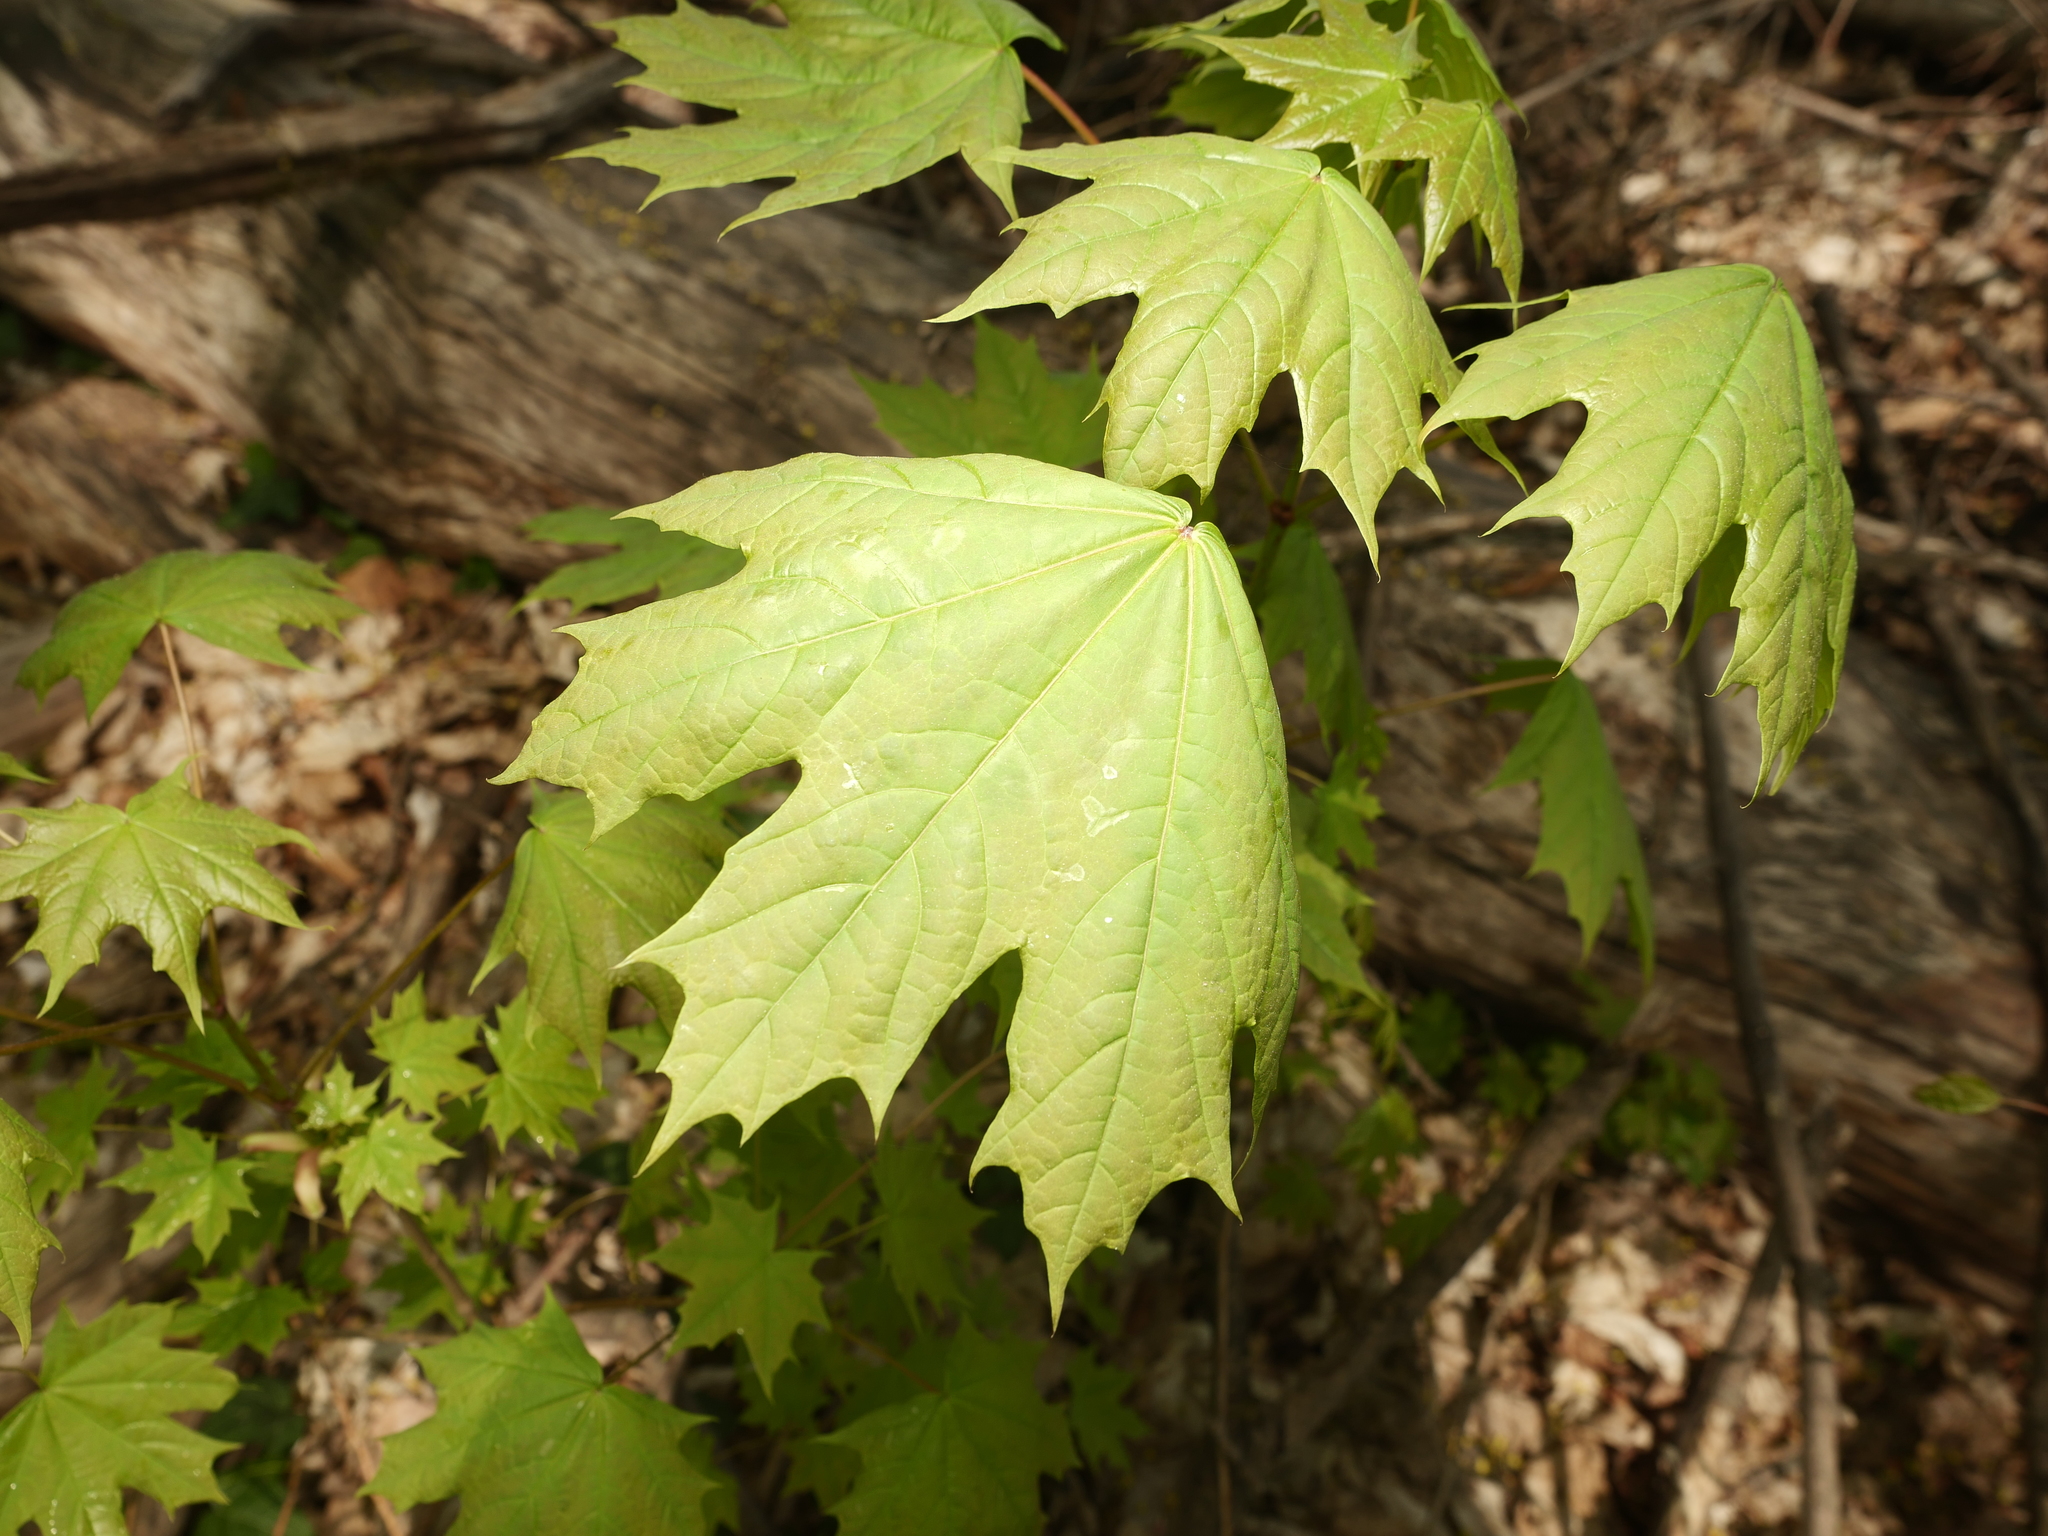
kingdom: Plantae
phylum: Tracheophyta
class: Magnoliopsida
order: Sapindales
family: Sapindaceae
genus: Acer
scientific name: Acer platanoides
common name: Norway maple
